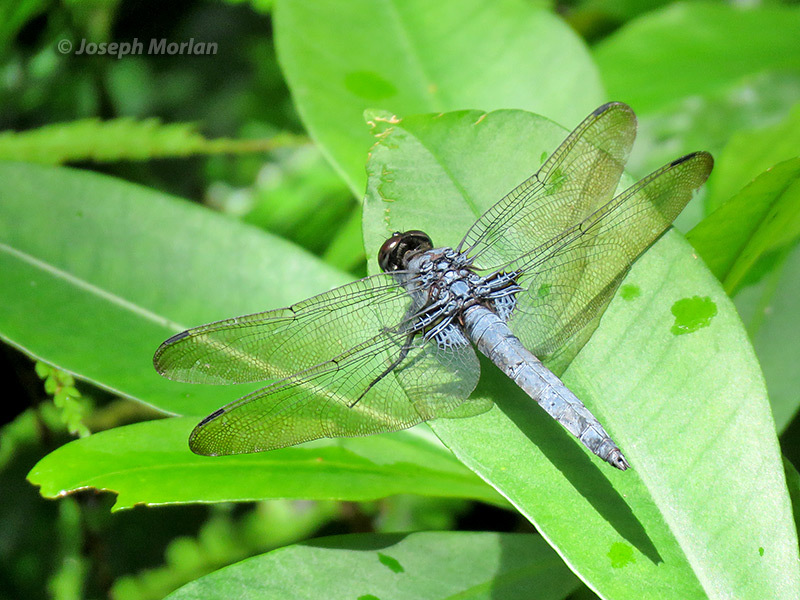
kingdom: Animalia
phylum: Arthropoda
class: Insecta
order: Odonata
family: Libellulidae
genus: Orthetrum
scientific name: Orthetrum melania
